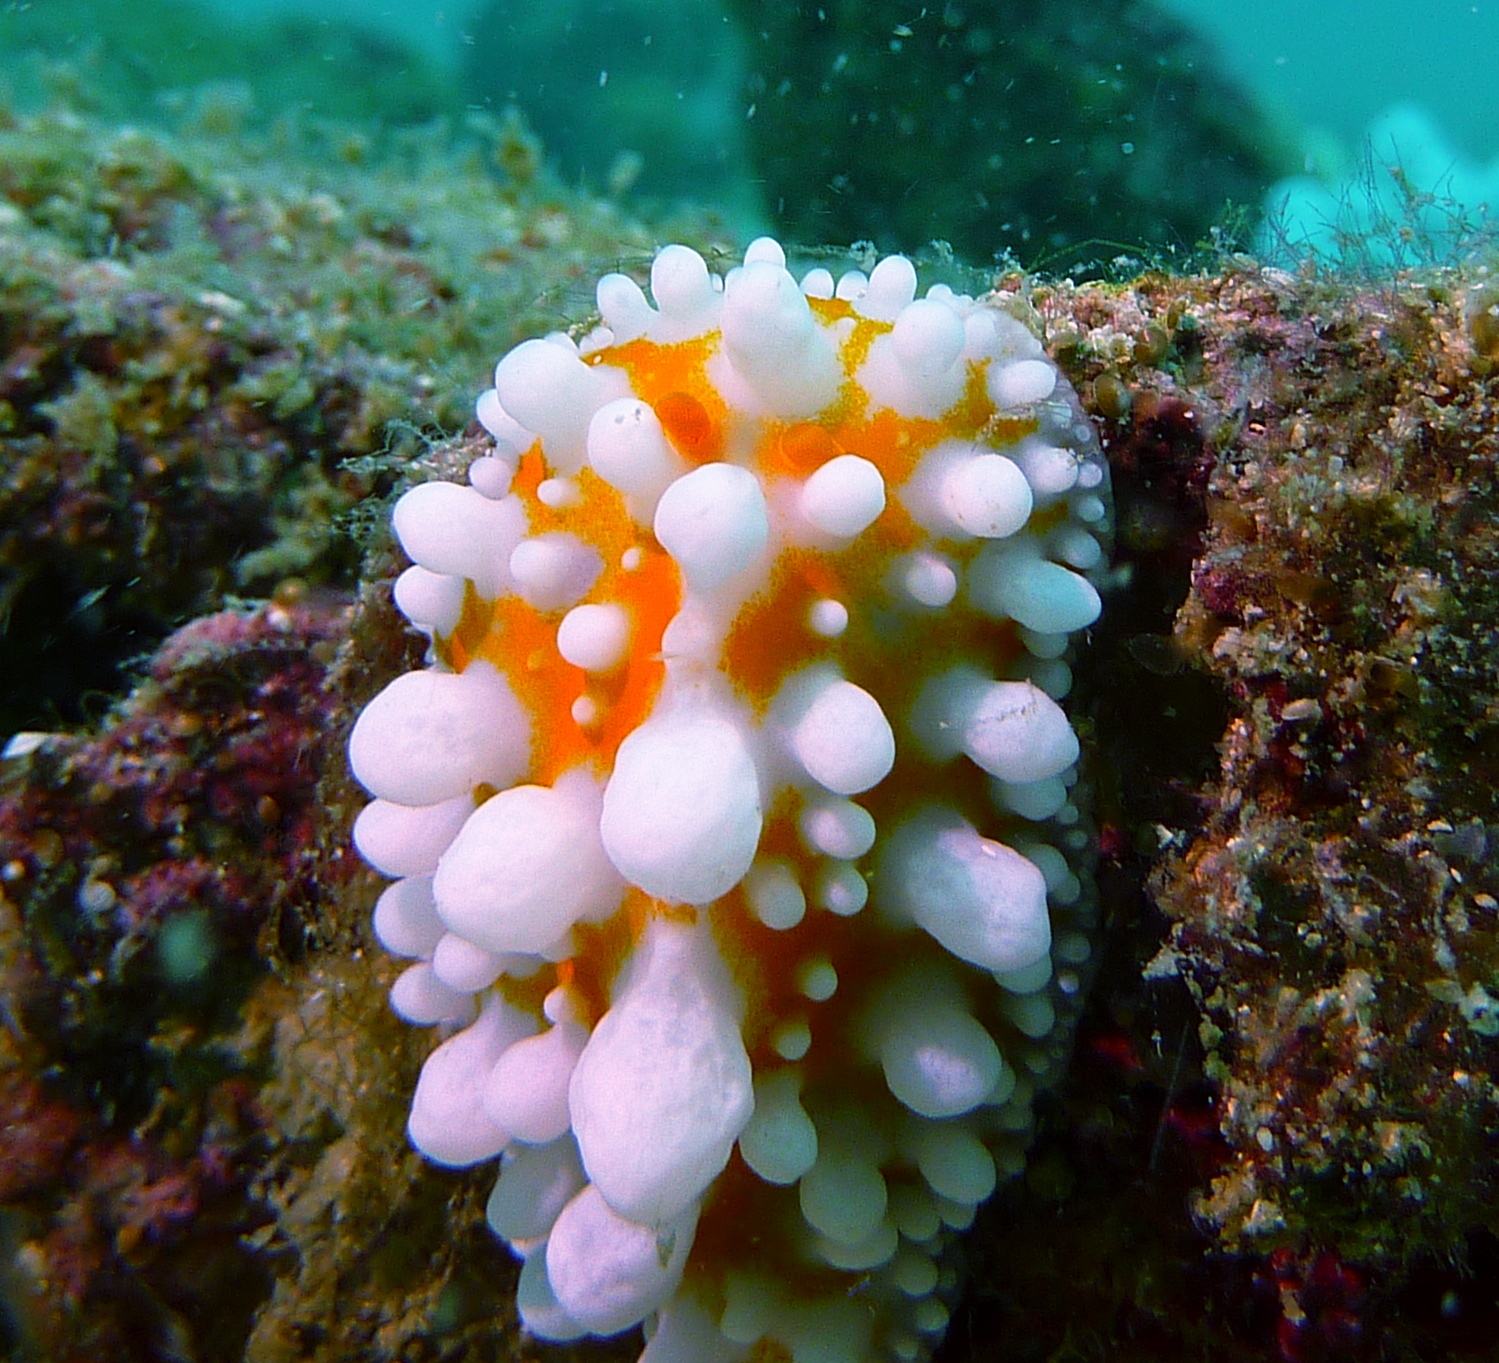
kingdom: Animalia
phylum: Mollusca
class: Gastropoda
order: Nudibranchia
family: Phyllidiidae
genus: Phyllidia
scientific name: Phyllidia ocellata
